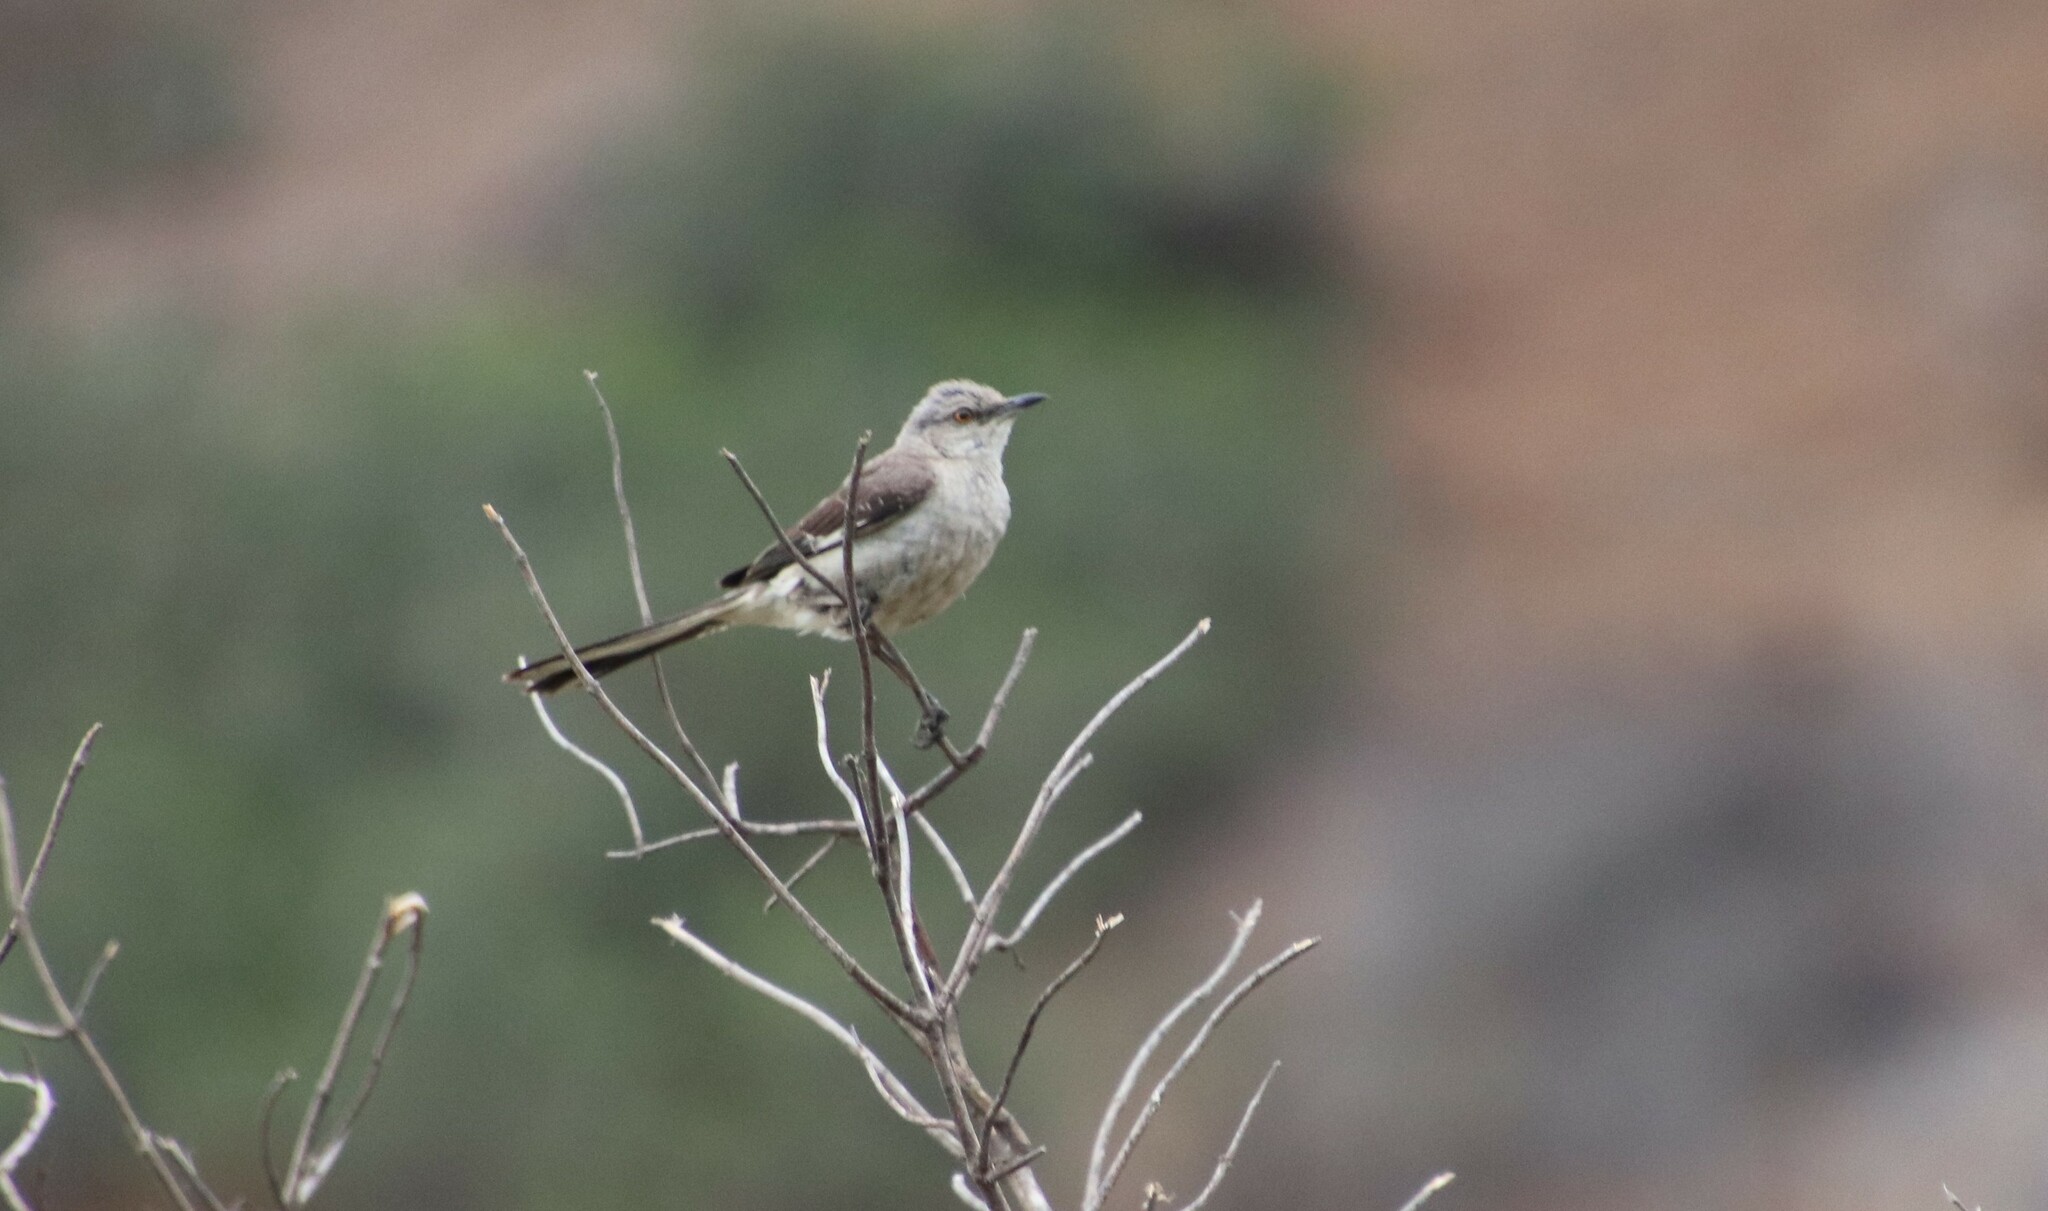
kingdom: Animalia
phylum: Chordata
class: Aves
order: Passeriformes
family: Mimidae
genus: Mimus
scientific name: Mimus polyglottos
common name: Northern mockingbird
